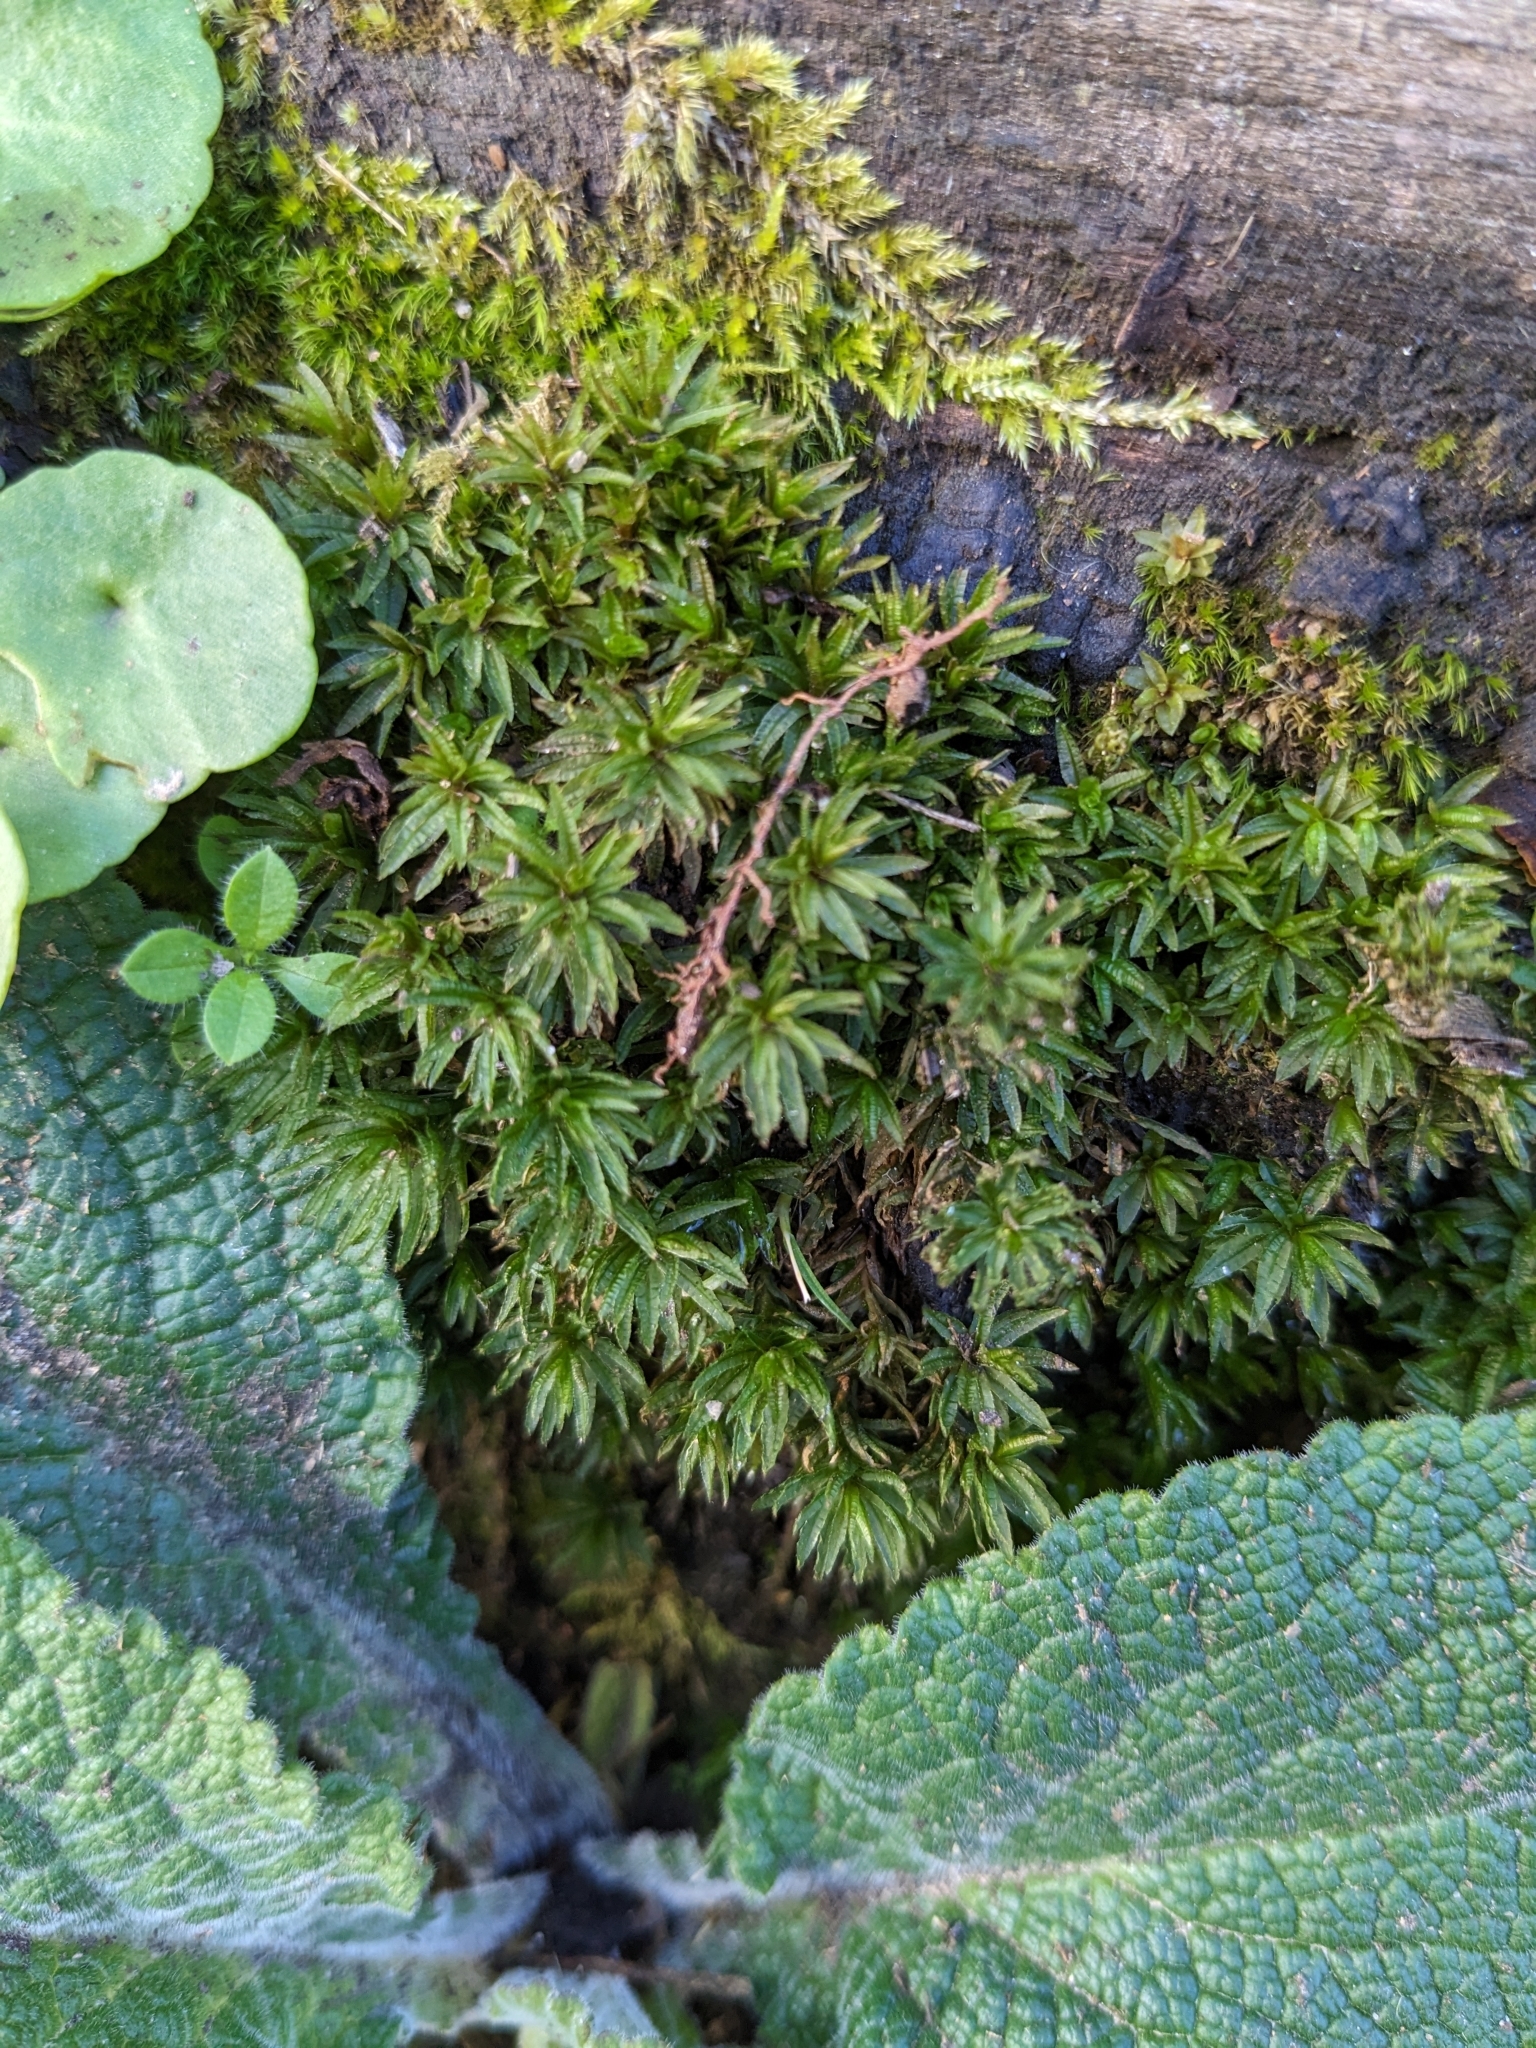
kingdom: Plantae
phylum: Bryophyta
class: Polytrichopsida
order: Polytrichales
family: Polytrichaceae
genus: Atrichum
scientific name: Atrichum undulatum
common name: Common smoothcap
